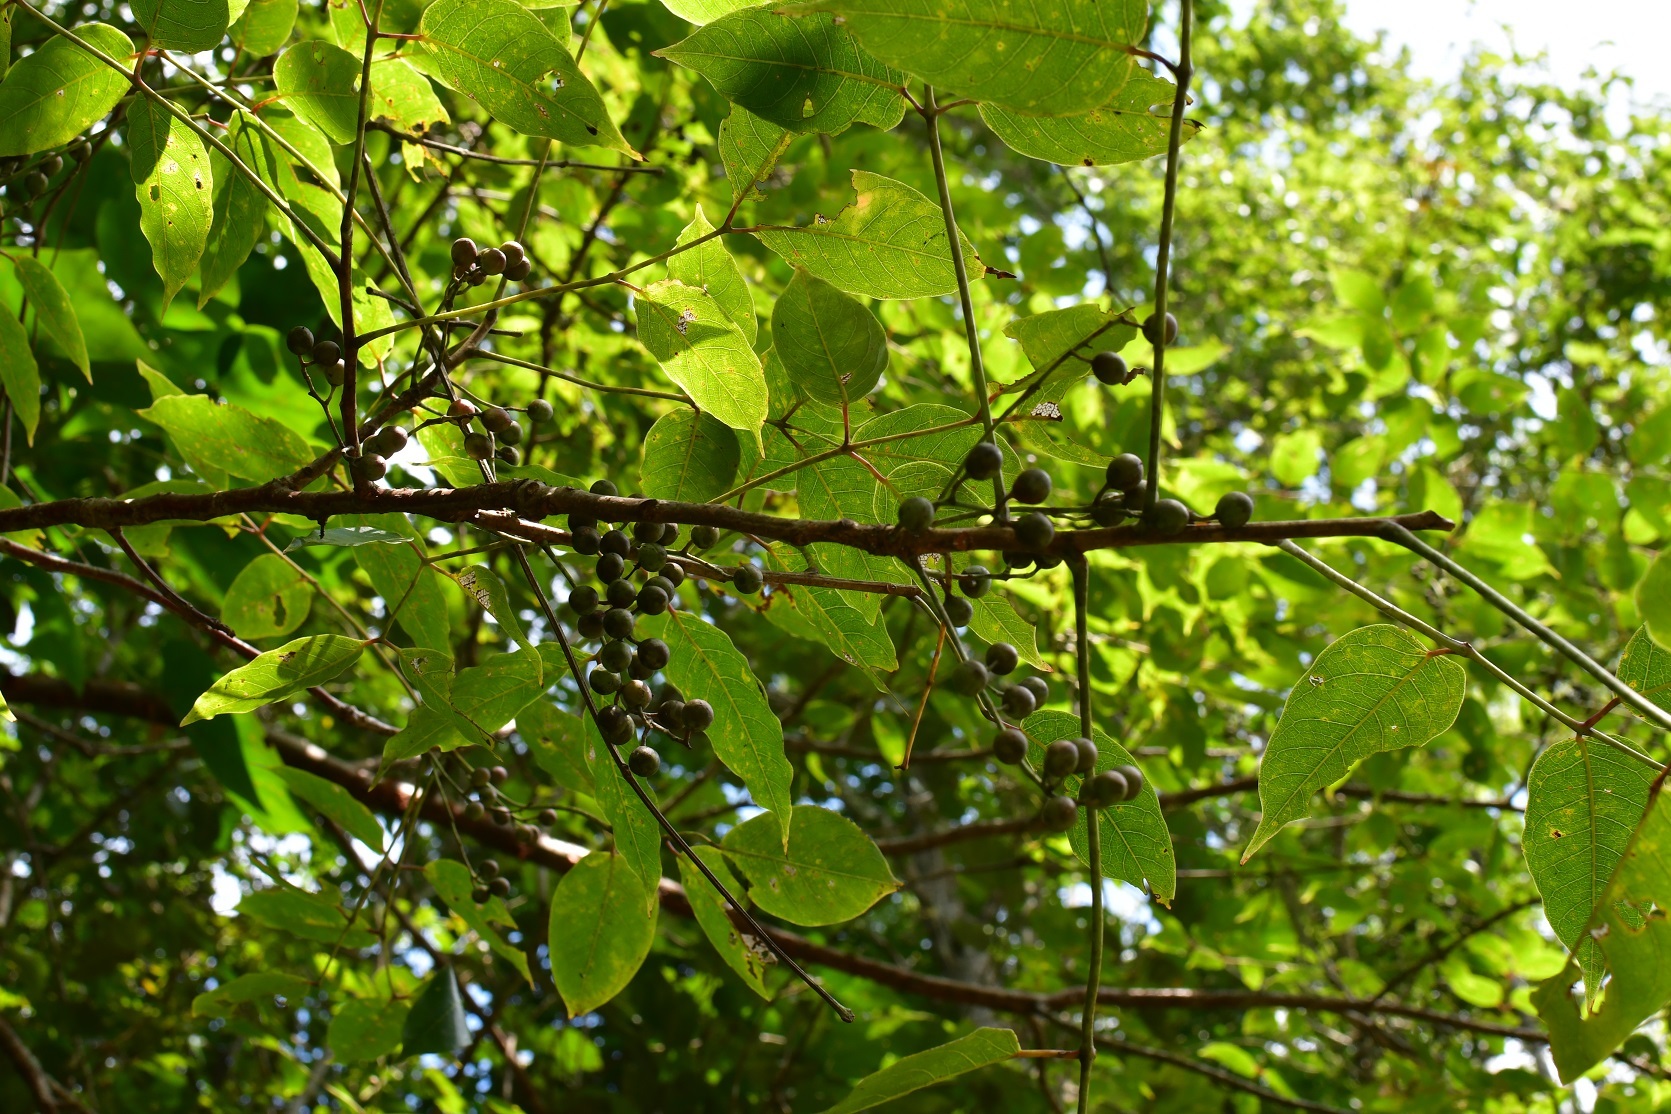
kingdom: Plantae
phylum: Tracheophyta
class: Magnoliopsida
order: Sapindales
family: Burseraceae
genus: Bursera
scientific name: Bursera simaruba
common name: Turpentine tree
